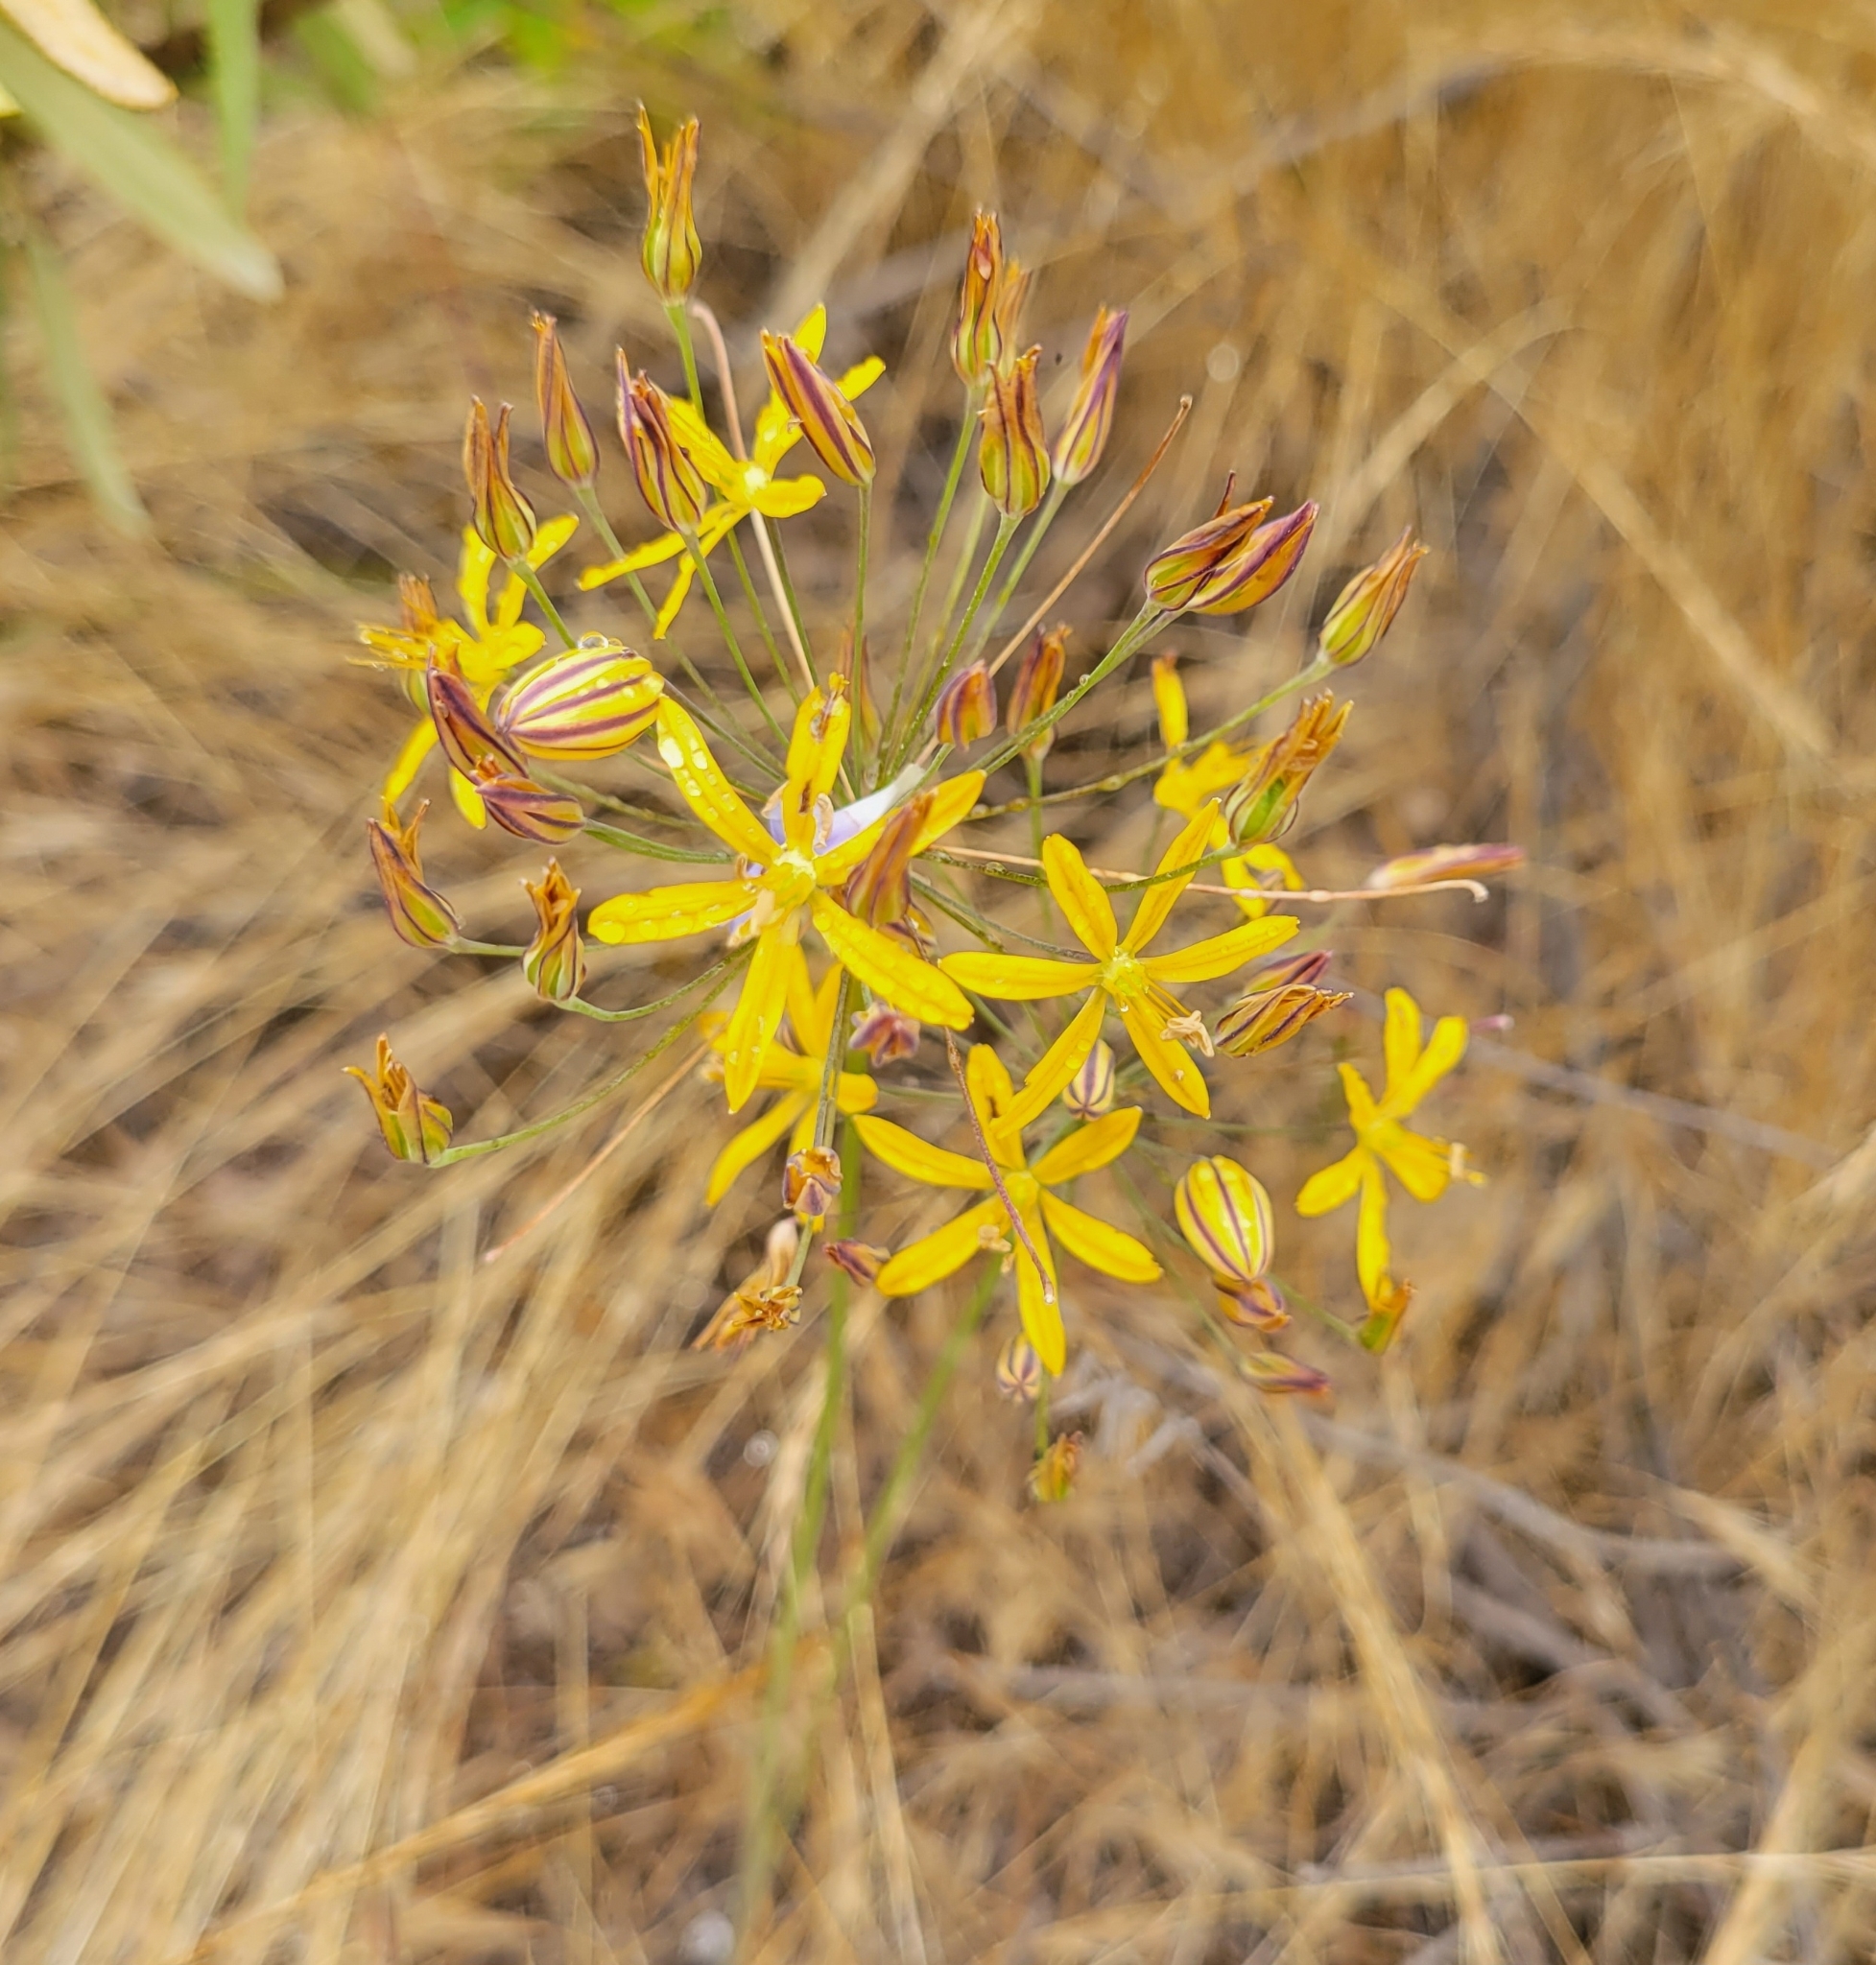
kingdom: Plantae
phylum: Tracheophyta
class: Liliopsida
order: Asparagales
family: Asparagaceae
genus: Bloomeria
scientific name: Bloomeria crocea
